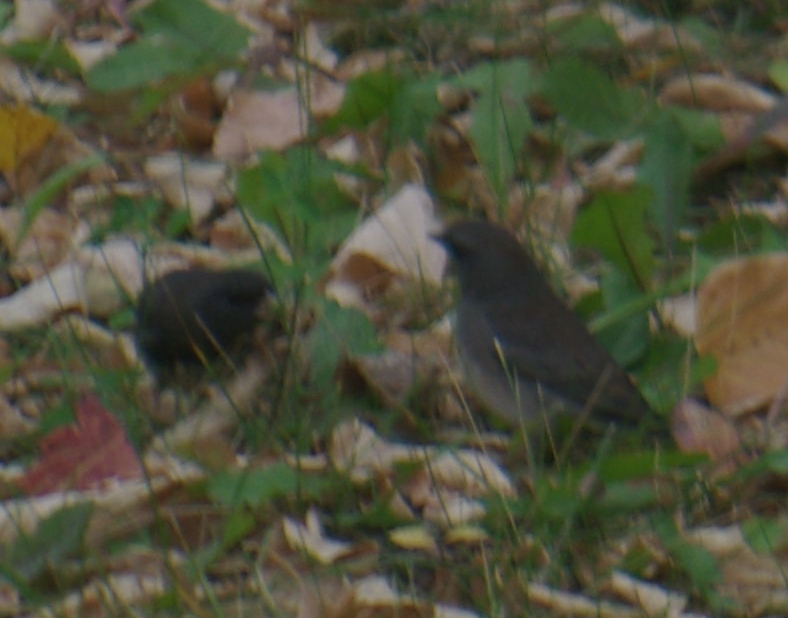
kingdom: Animalia
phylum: Chordata
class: Aves
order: Passeriformes
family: Passerellidae
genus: Junco
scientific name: Junco hyemalis
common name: Dark-eyed junco
